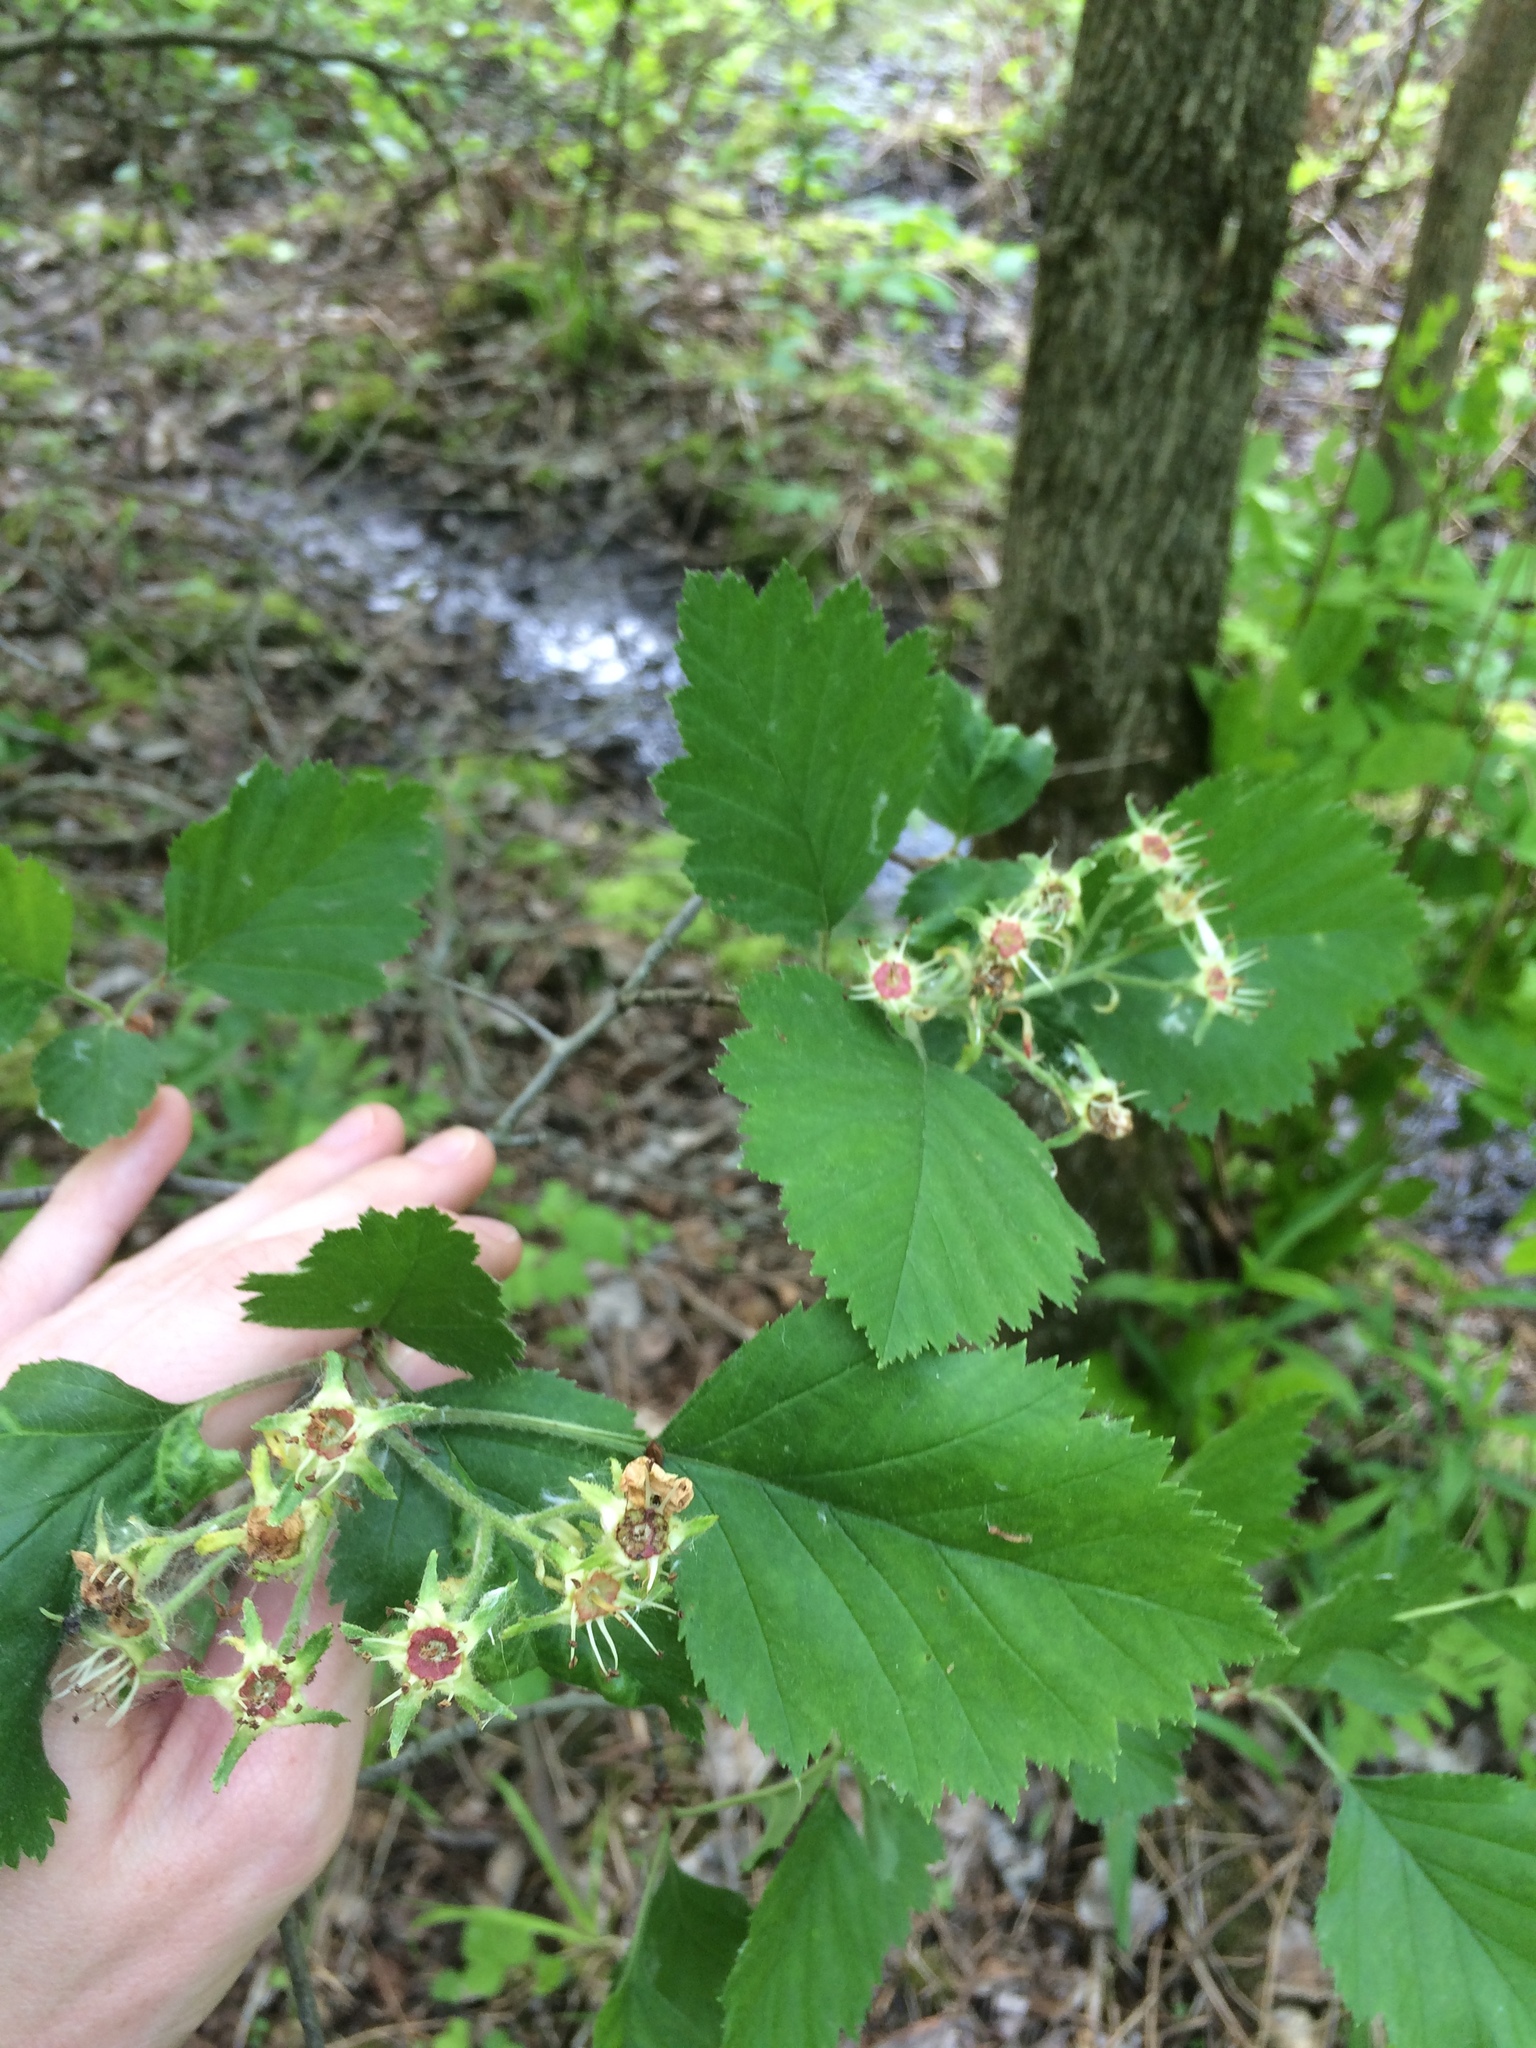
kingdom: Plantae
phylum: Tracheophyta
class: Magnoliopsida
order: Rosales
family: Rosaceae
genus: Crataegus
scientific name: Crataegus submollis
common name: Hairy cockspurthorn
